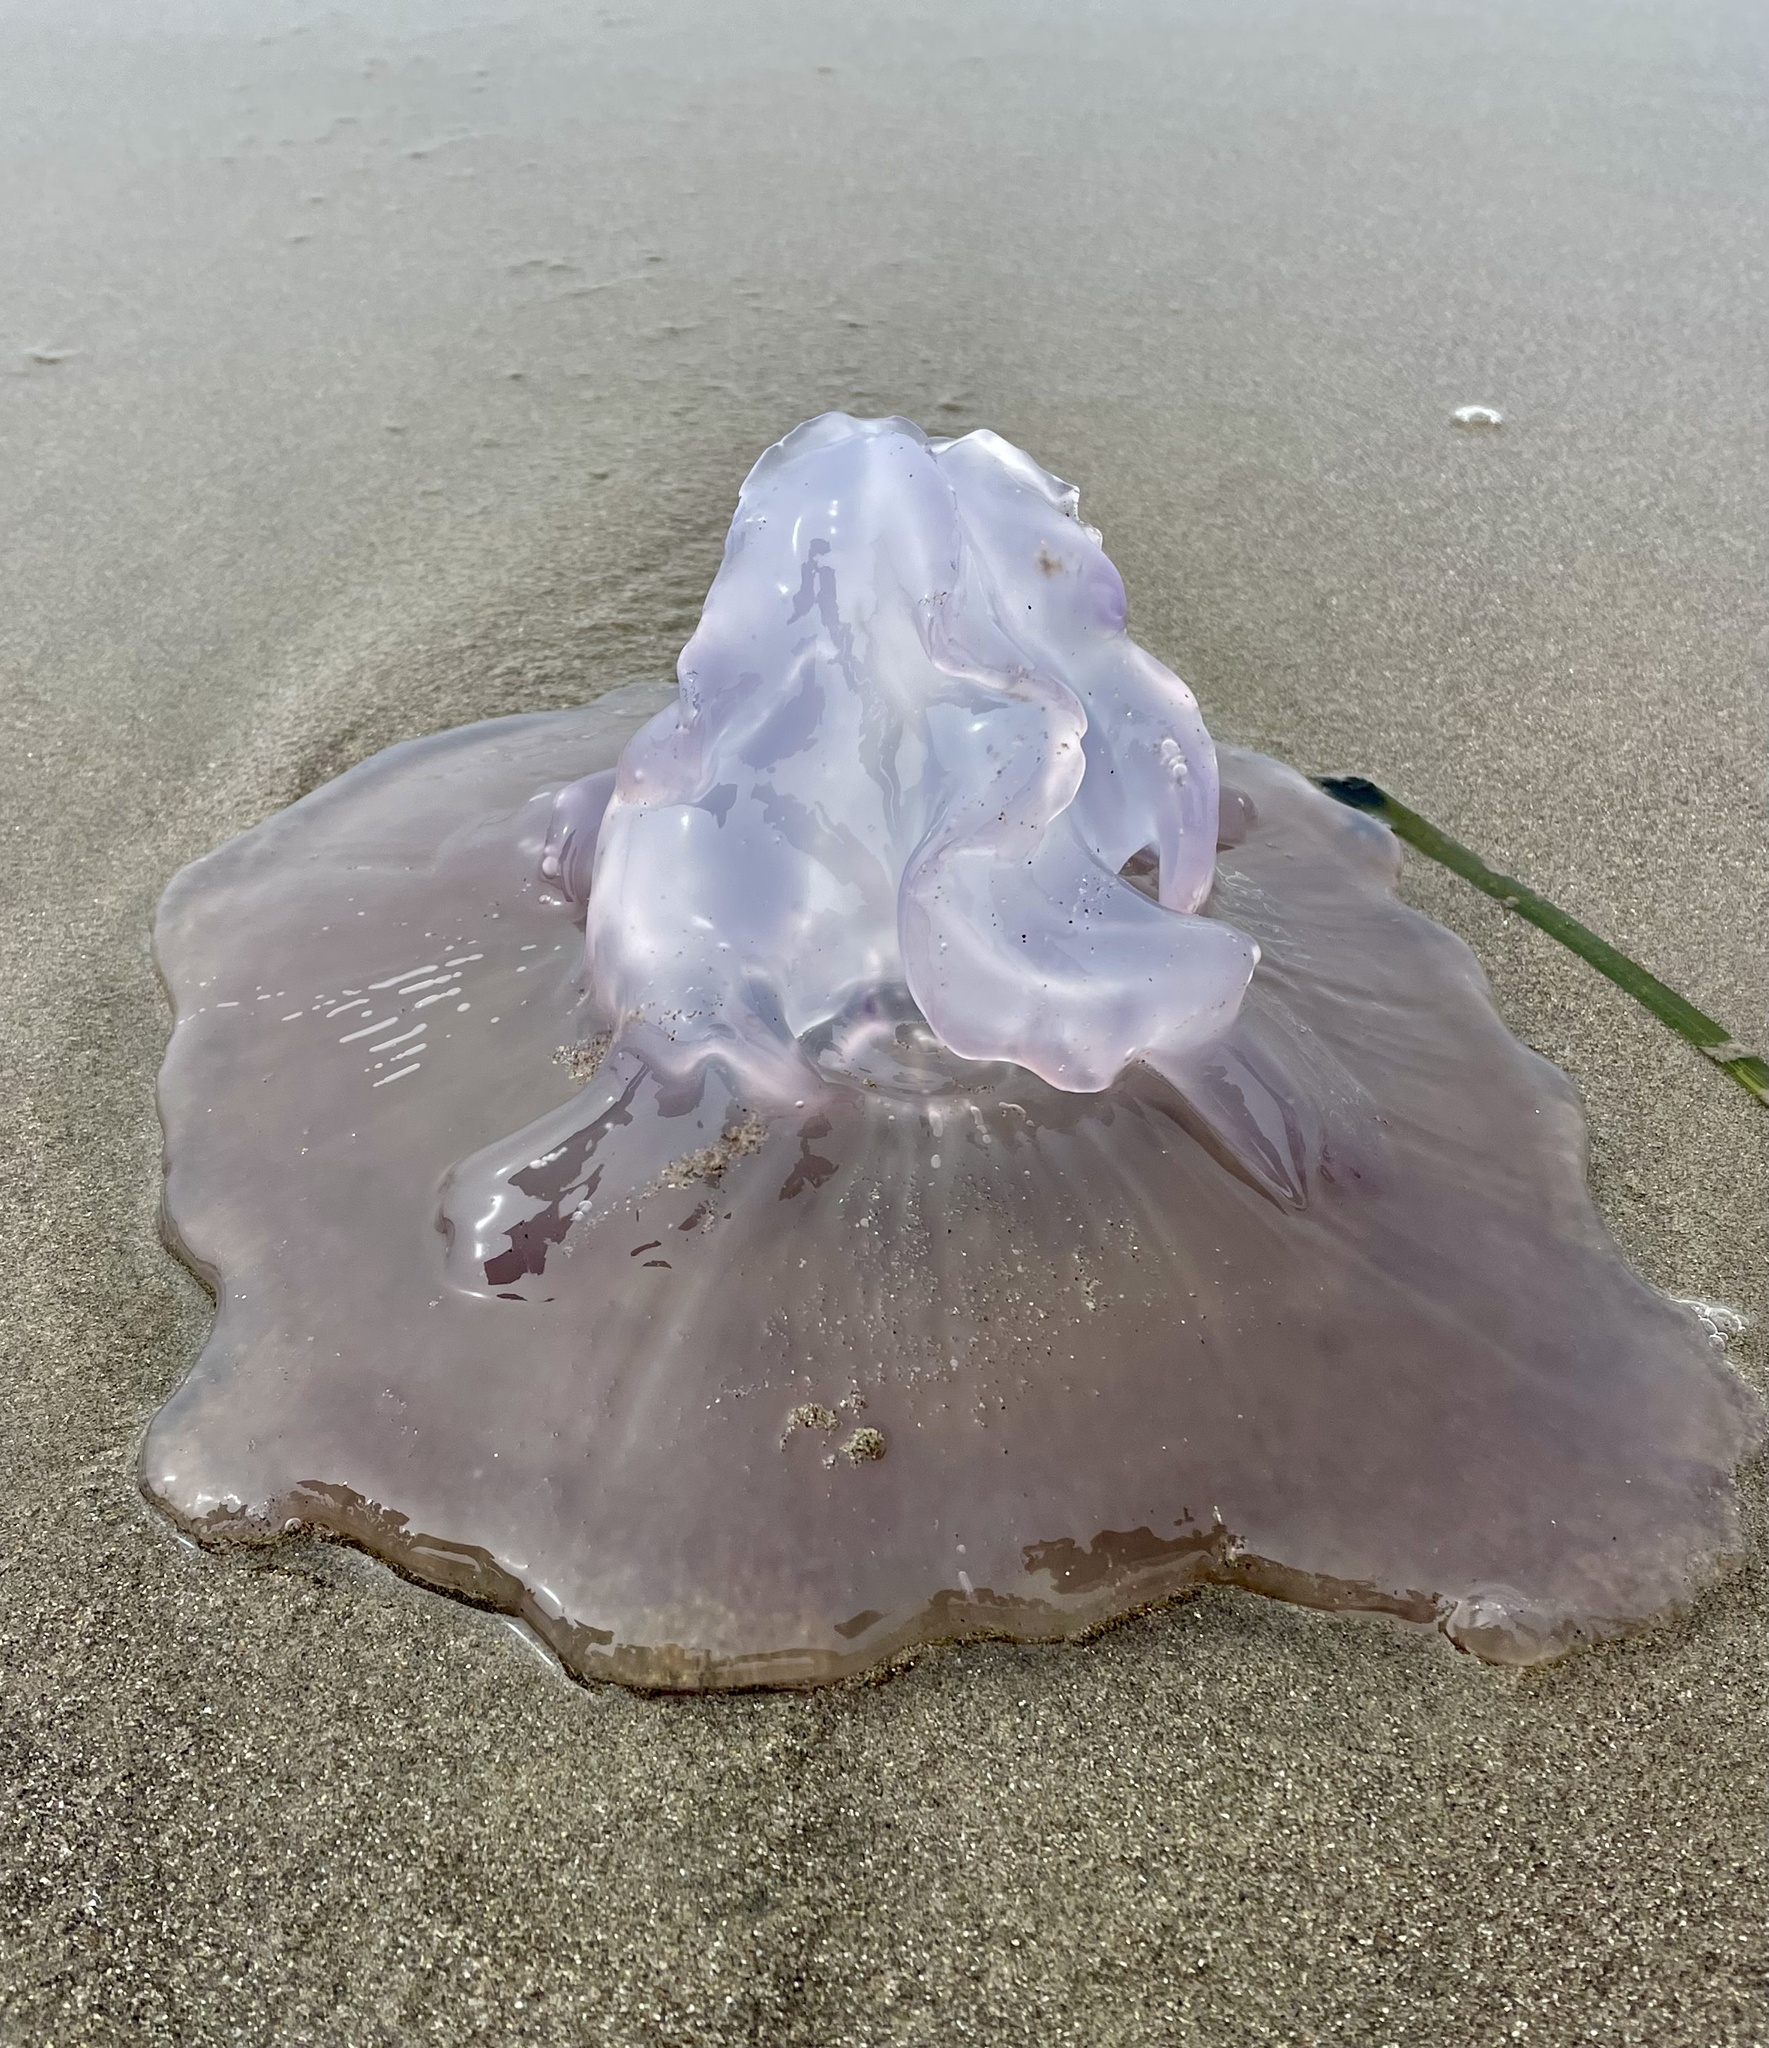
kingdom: Animalia
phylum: Cnidaria
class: Scyphozoa
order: Semaeostomeae
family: Ulmaridae
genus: Aurelia
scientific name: Aurelia labiata
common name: Pacific moon jelly
